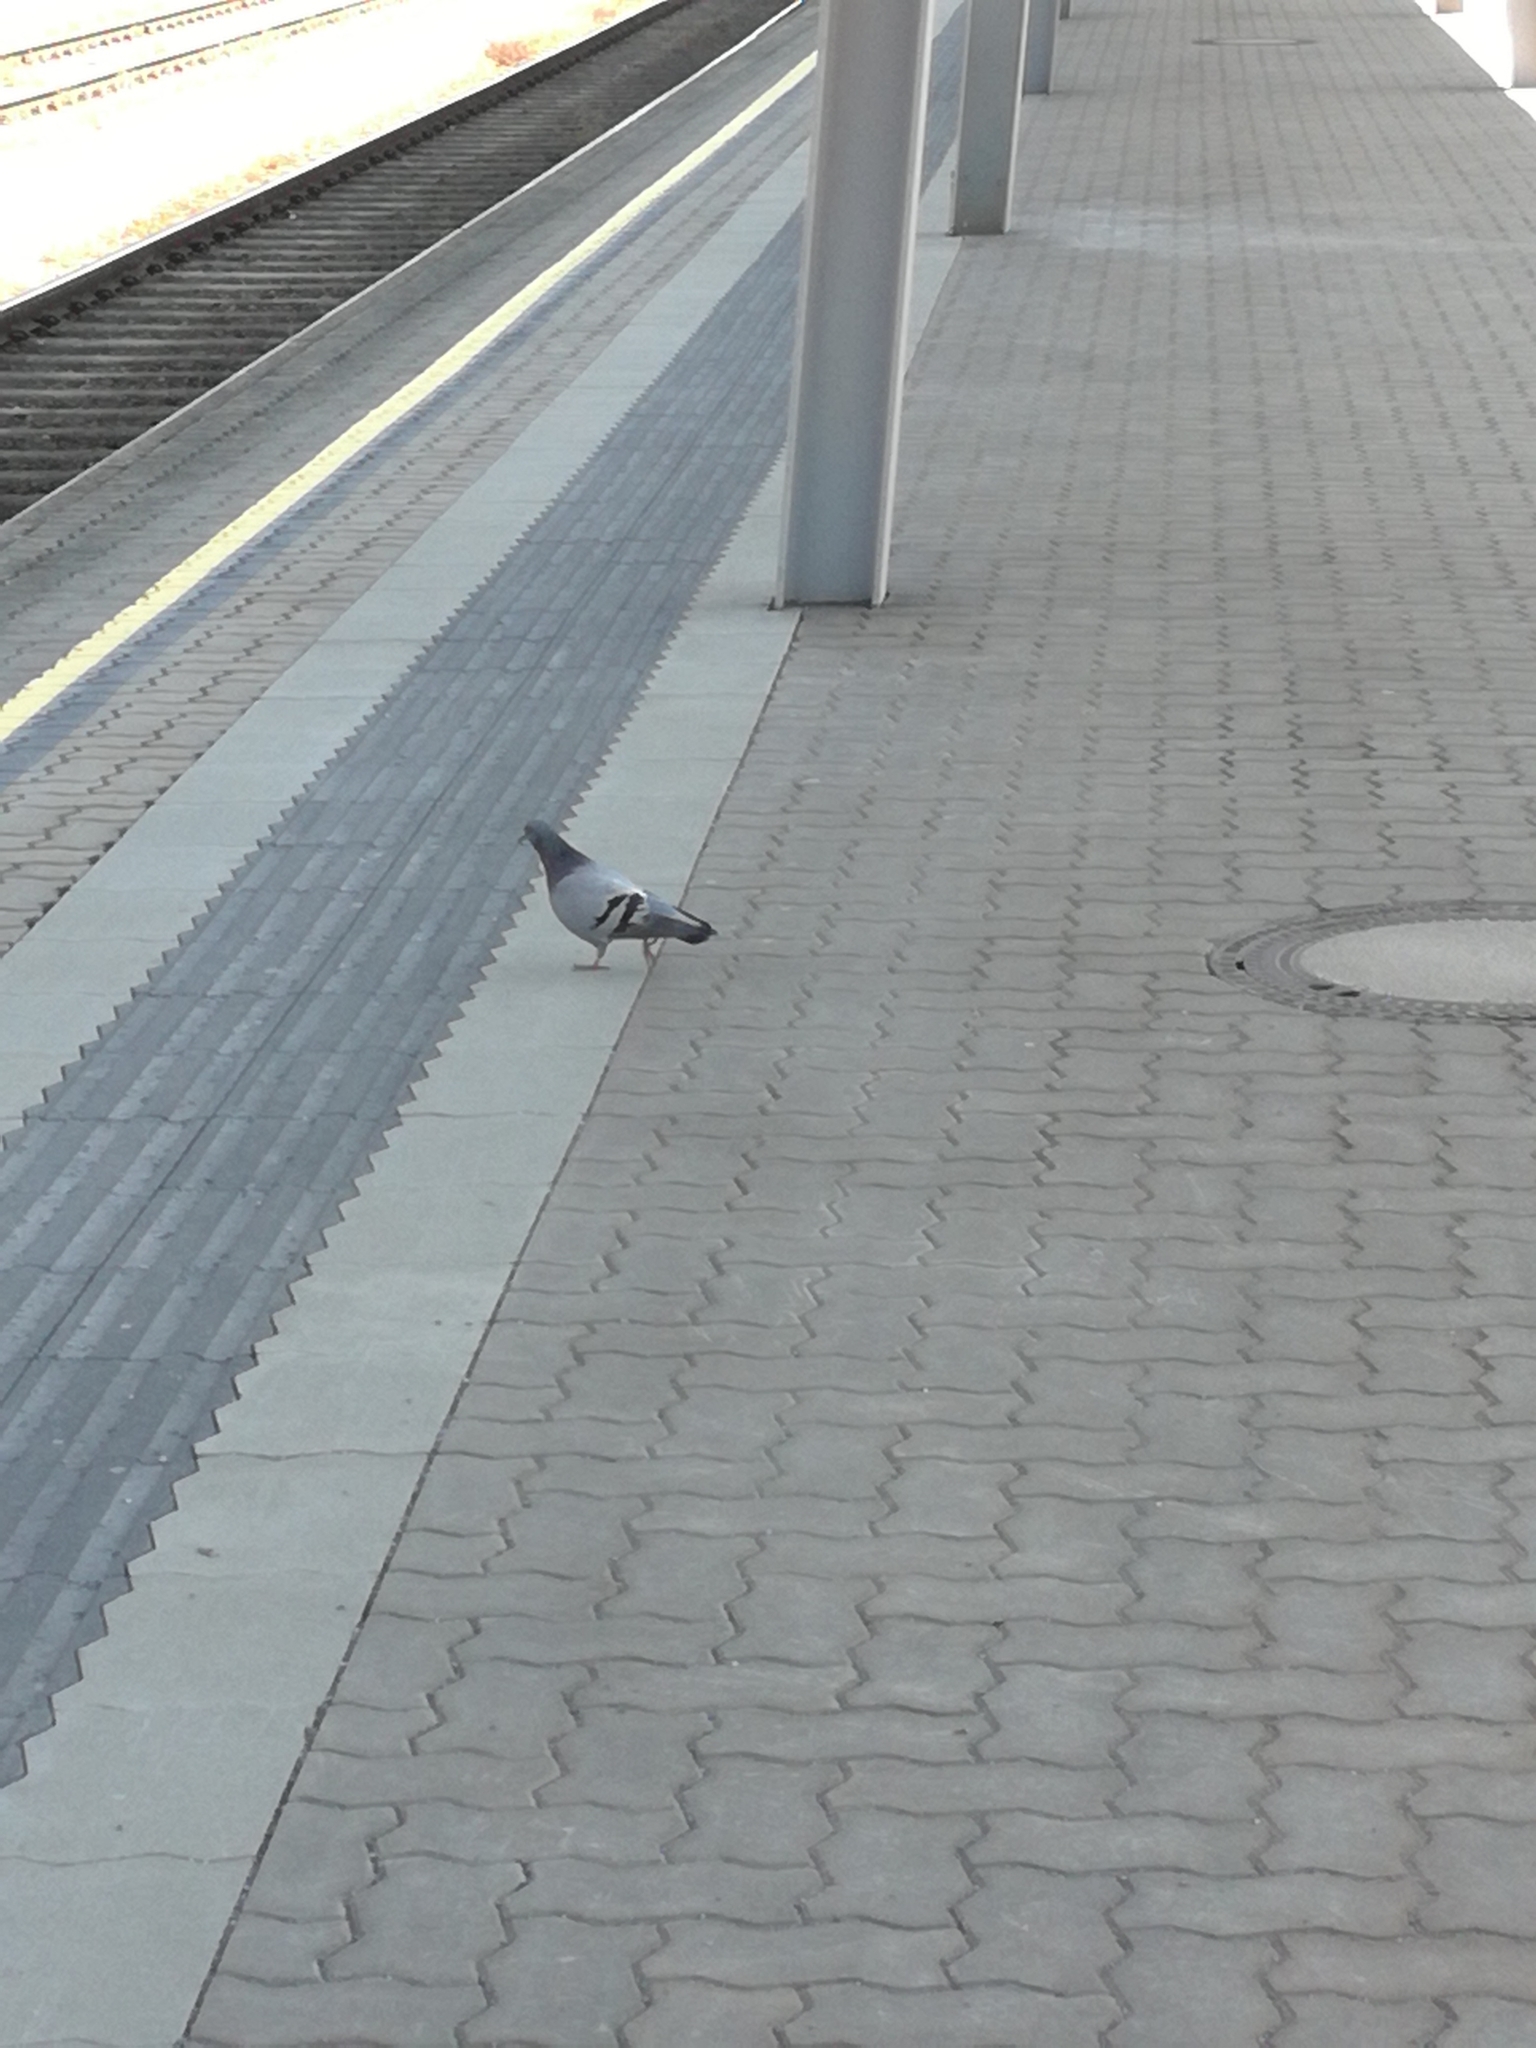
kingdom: Animalia
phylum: Chordata
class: Aves
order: Columbiformes
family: Columbidae
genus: Columba
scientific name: Columba livia
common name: Rock pigeon
